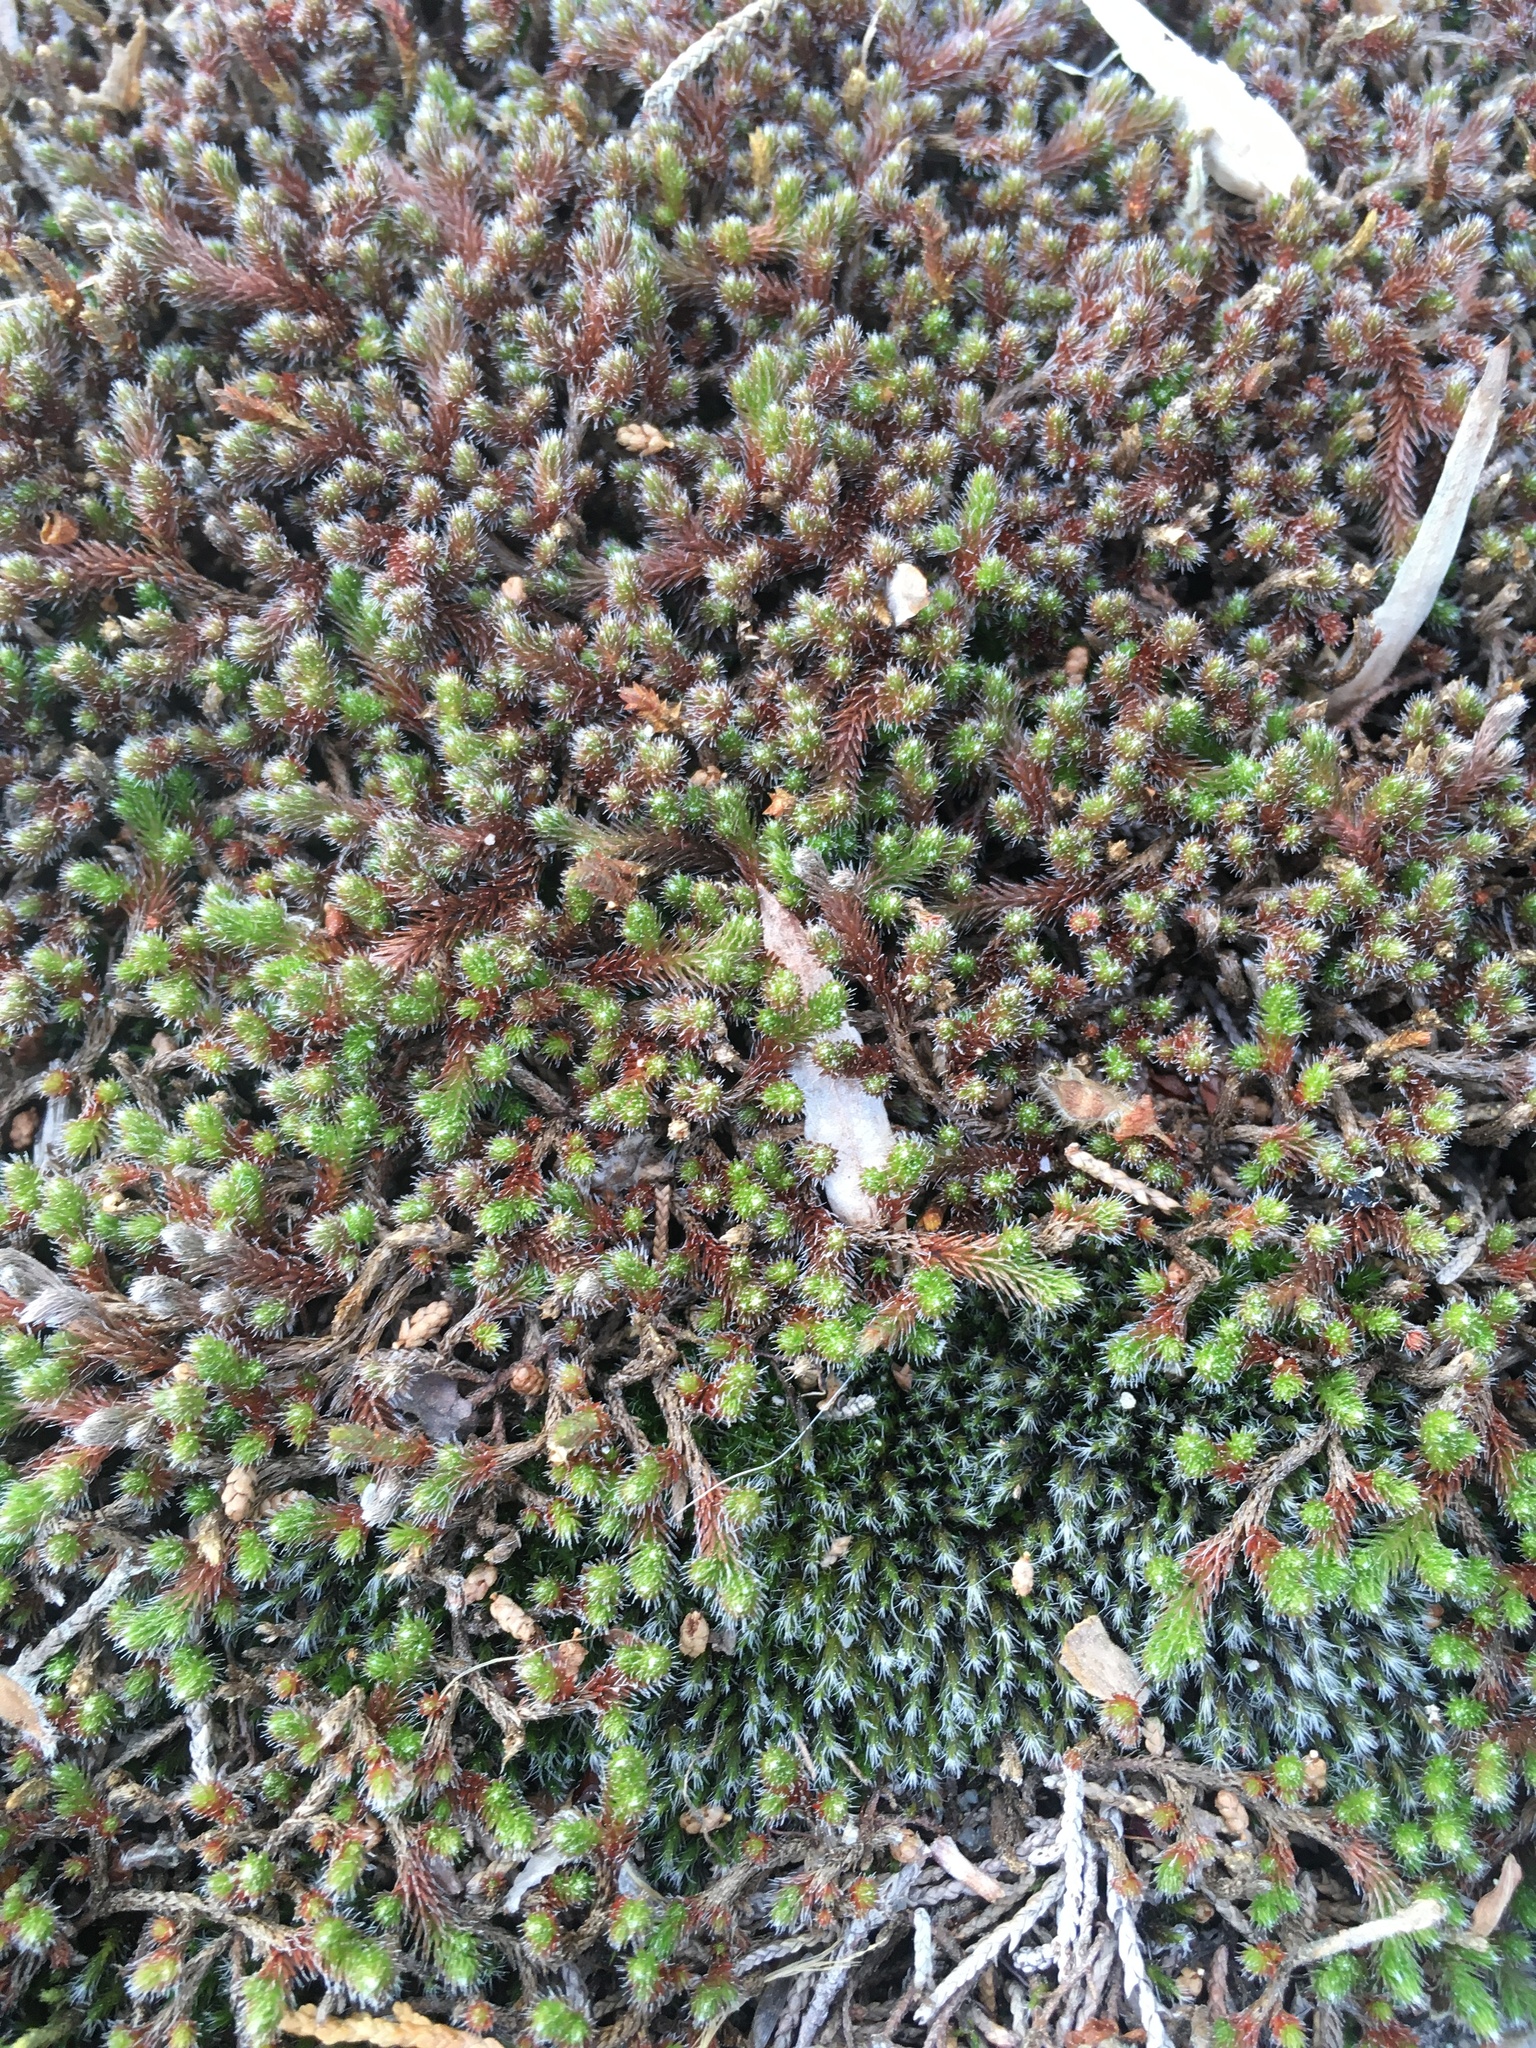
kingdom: Plantae
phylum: Tracheophyta
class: Lycopodiopsida
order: Selaginellales
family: Selaginellaceae
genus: Selaginella
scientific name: Selaginella rupestris
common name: Dwarf spikemoss
